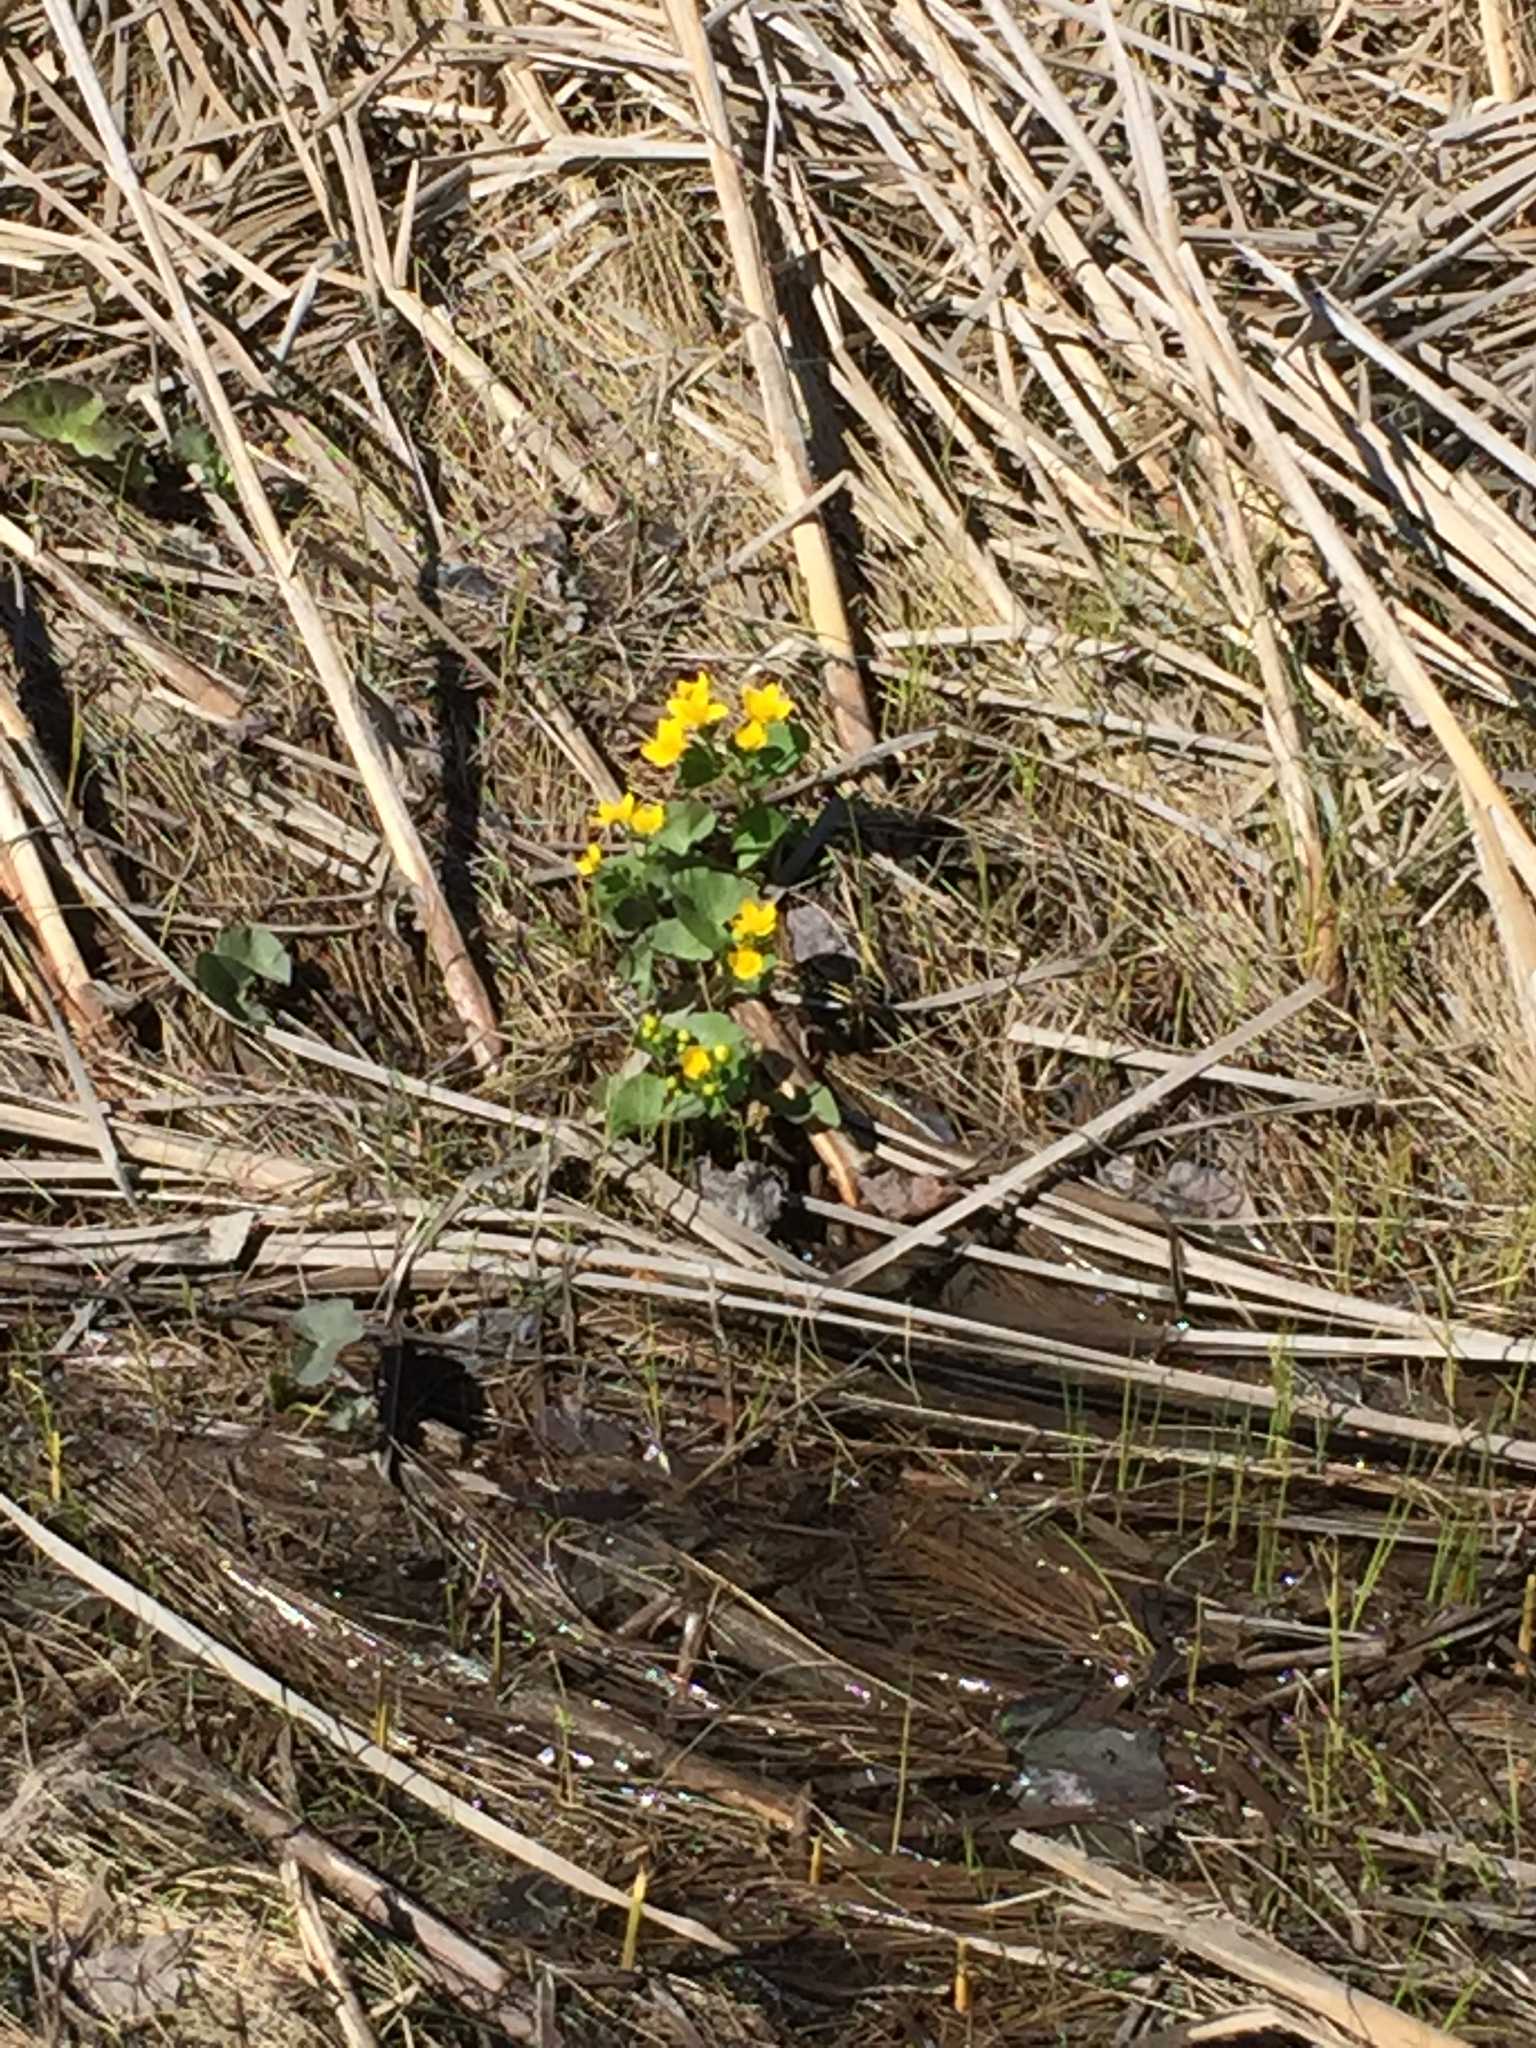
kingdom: Plantae
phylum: Tracheophyta
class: Magnoliopsida
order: Ranunculales
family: Ranunculaceae
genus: Caltha
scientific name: Caltha palustris
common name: Marsh marigold
